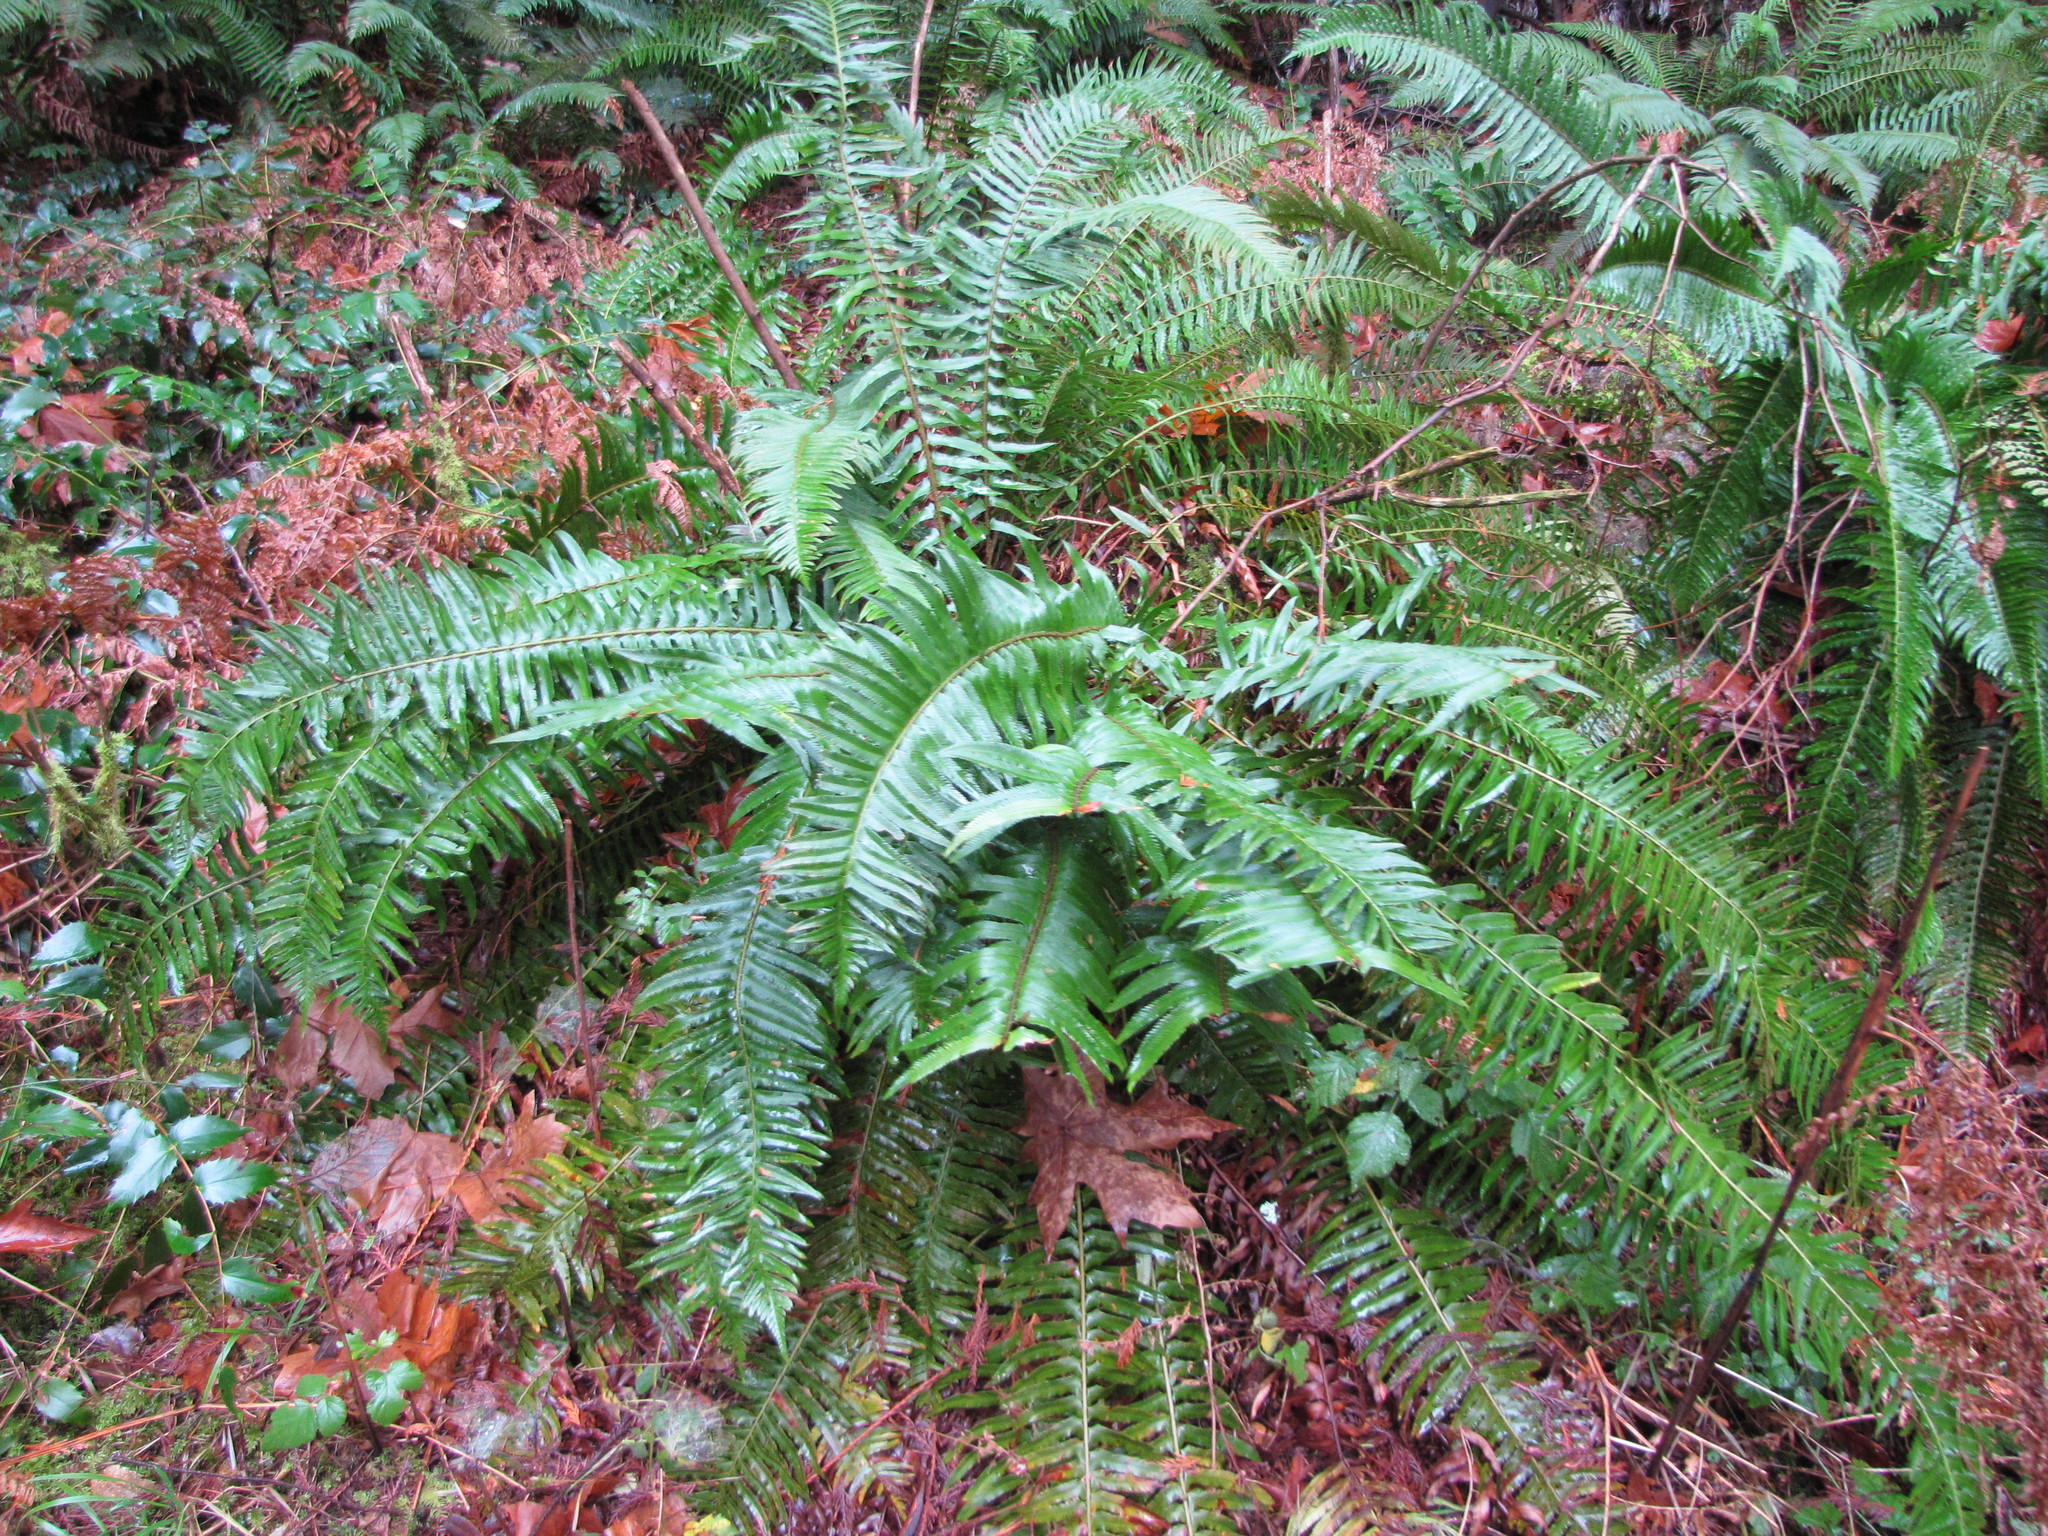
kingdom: Plantae
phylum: Tracheophyta
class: Polypodiopsida
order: Polypodiales
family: Dryopteridaceae
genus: Polystichum
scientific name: Polystichum munitum
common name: Western sword-fern
